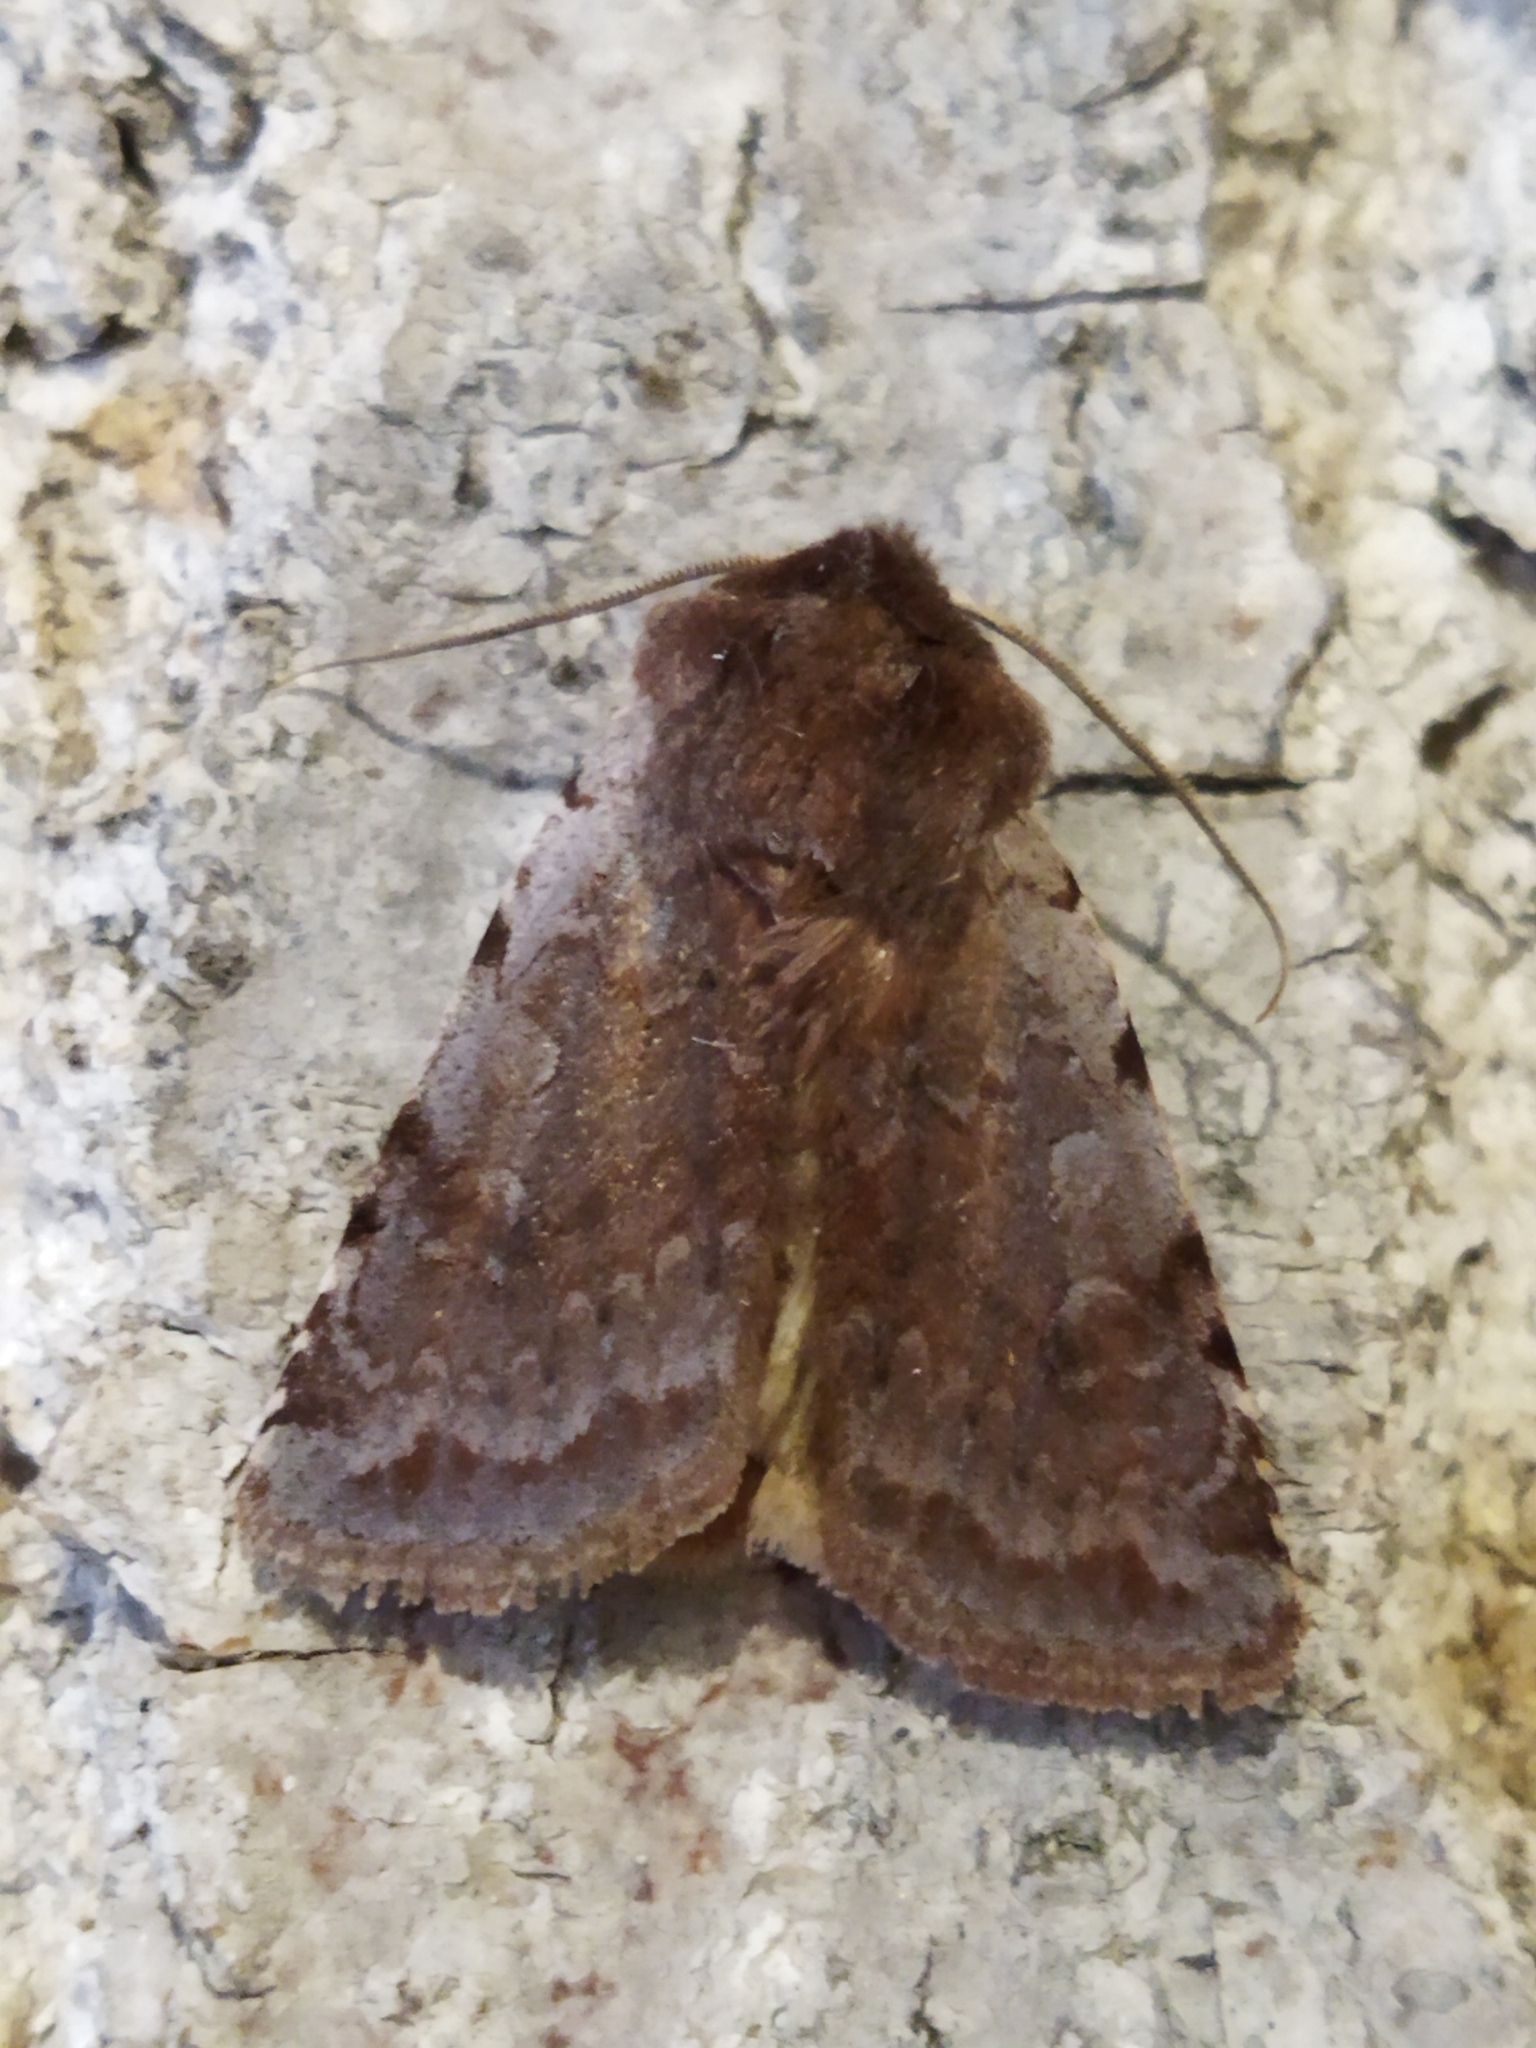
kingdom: Animalia
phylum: Arthropoda
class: Insecta
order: Lepidoptera
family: Noctuidae
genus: Cerastis
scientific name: Cerastis rubricosa
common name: Red chestnut
